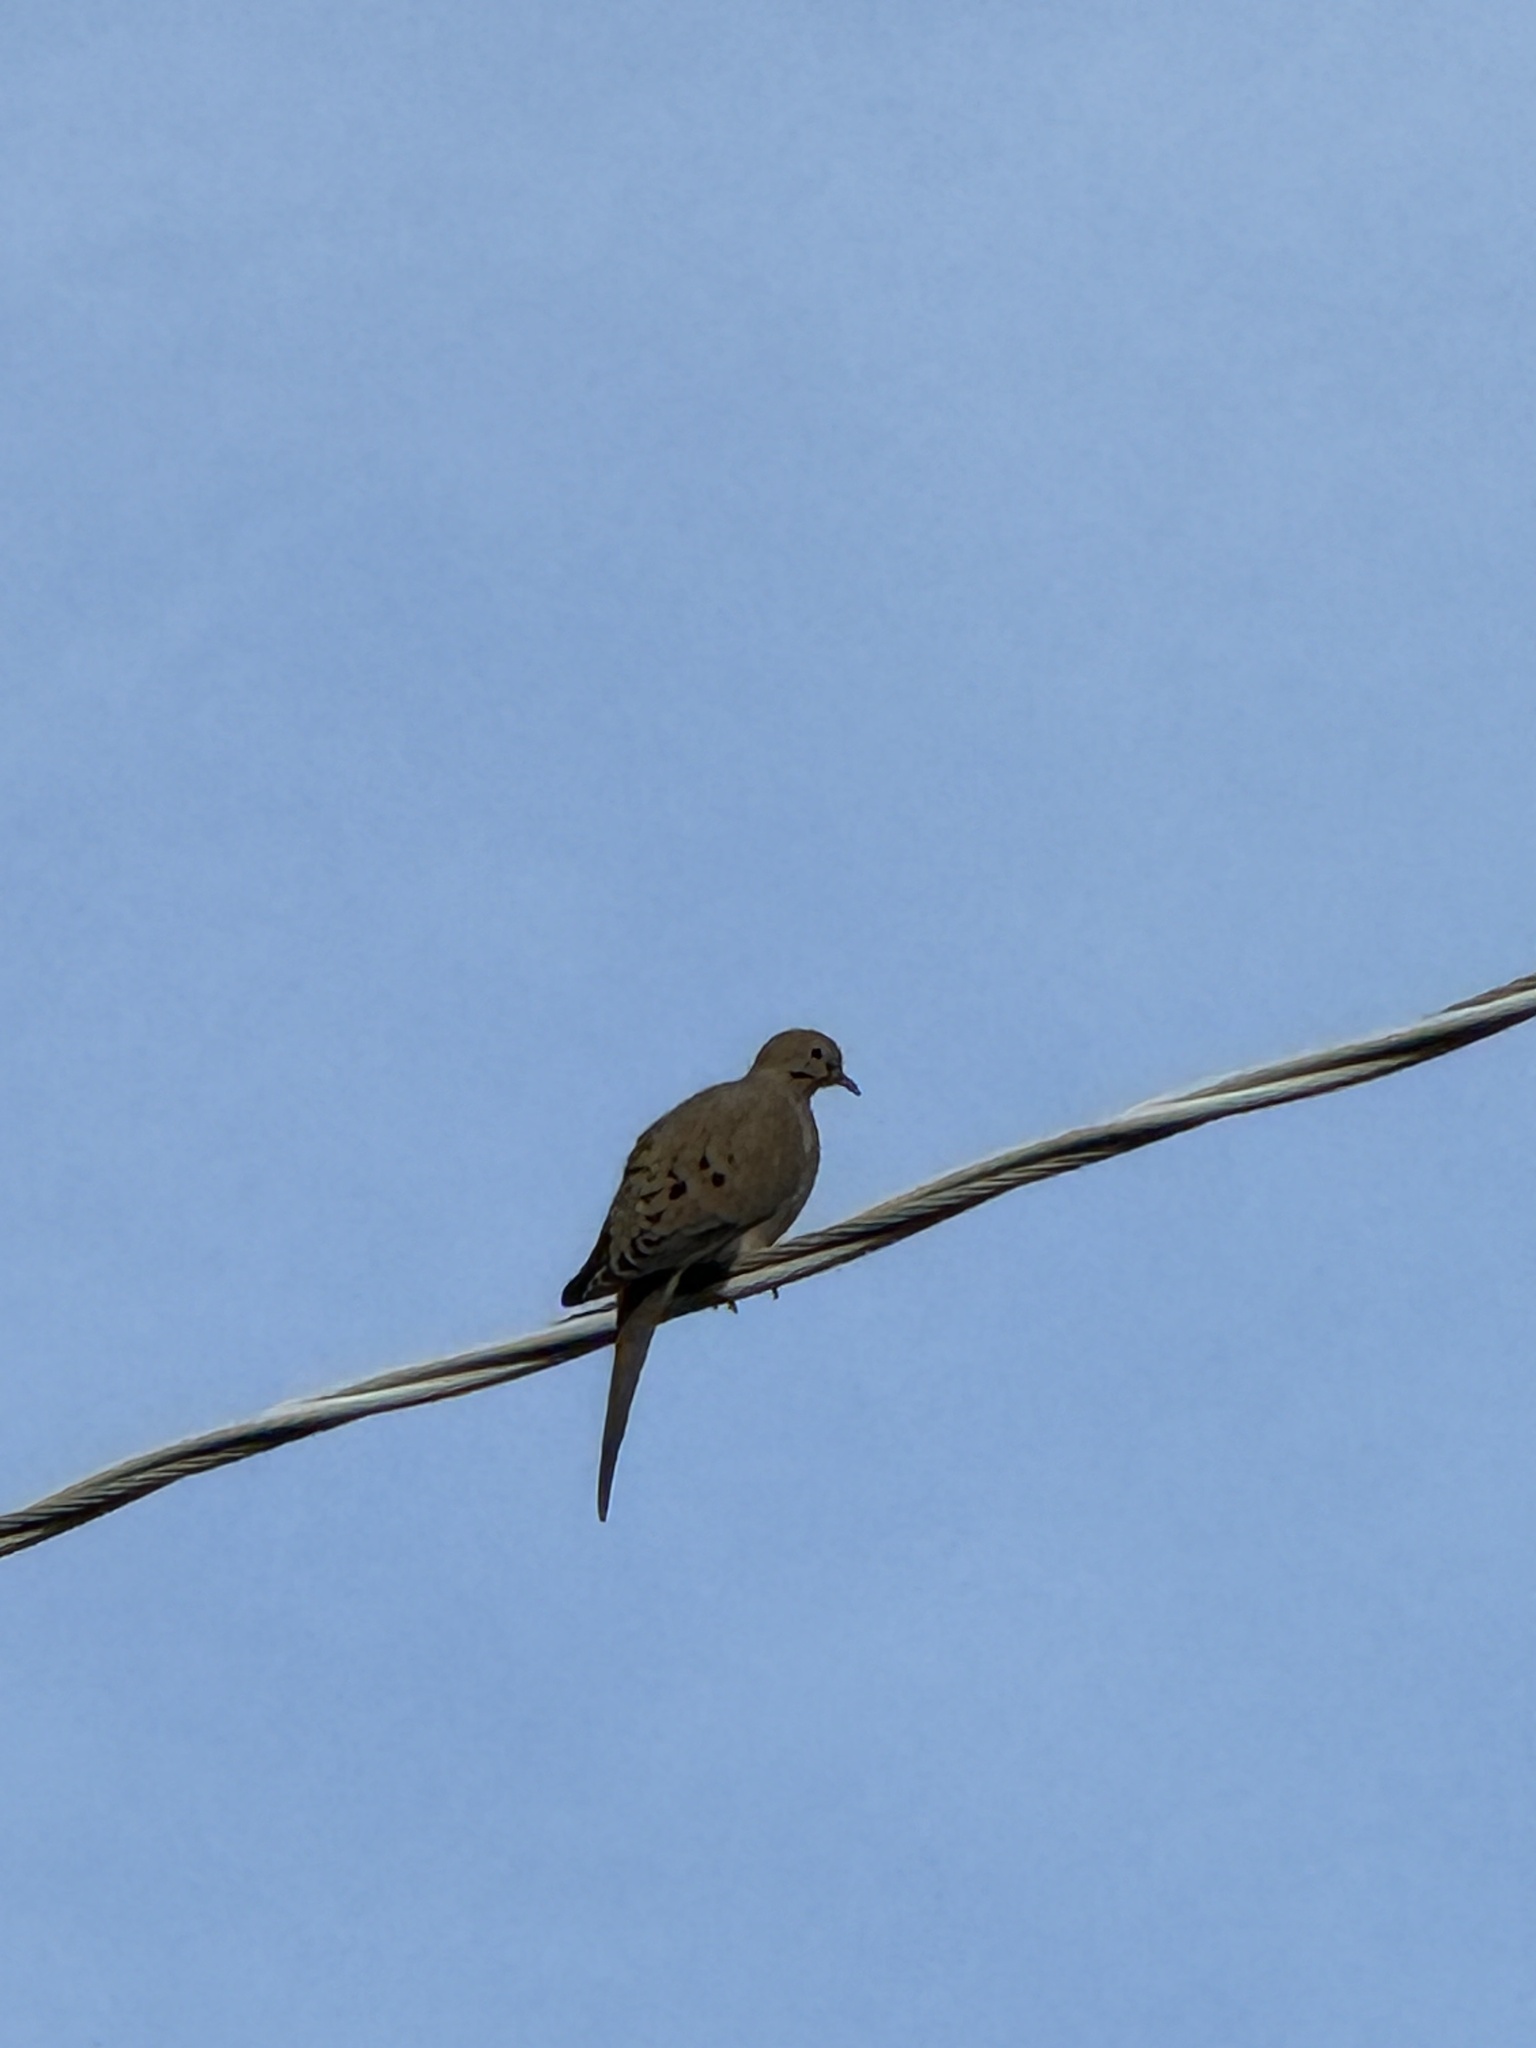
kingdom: Animalia
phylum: Chordata
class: Aves
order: Columbiformes
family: Columbidae
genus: Zenaida
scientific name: Zenaida macroura
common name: Mourning dove
